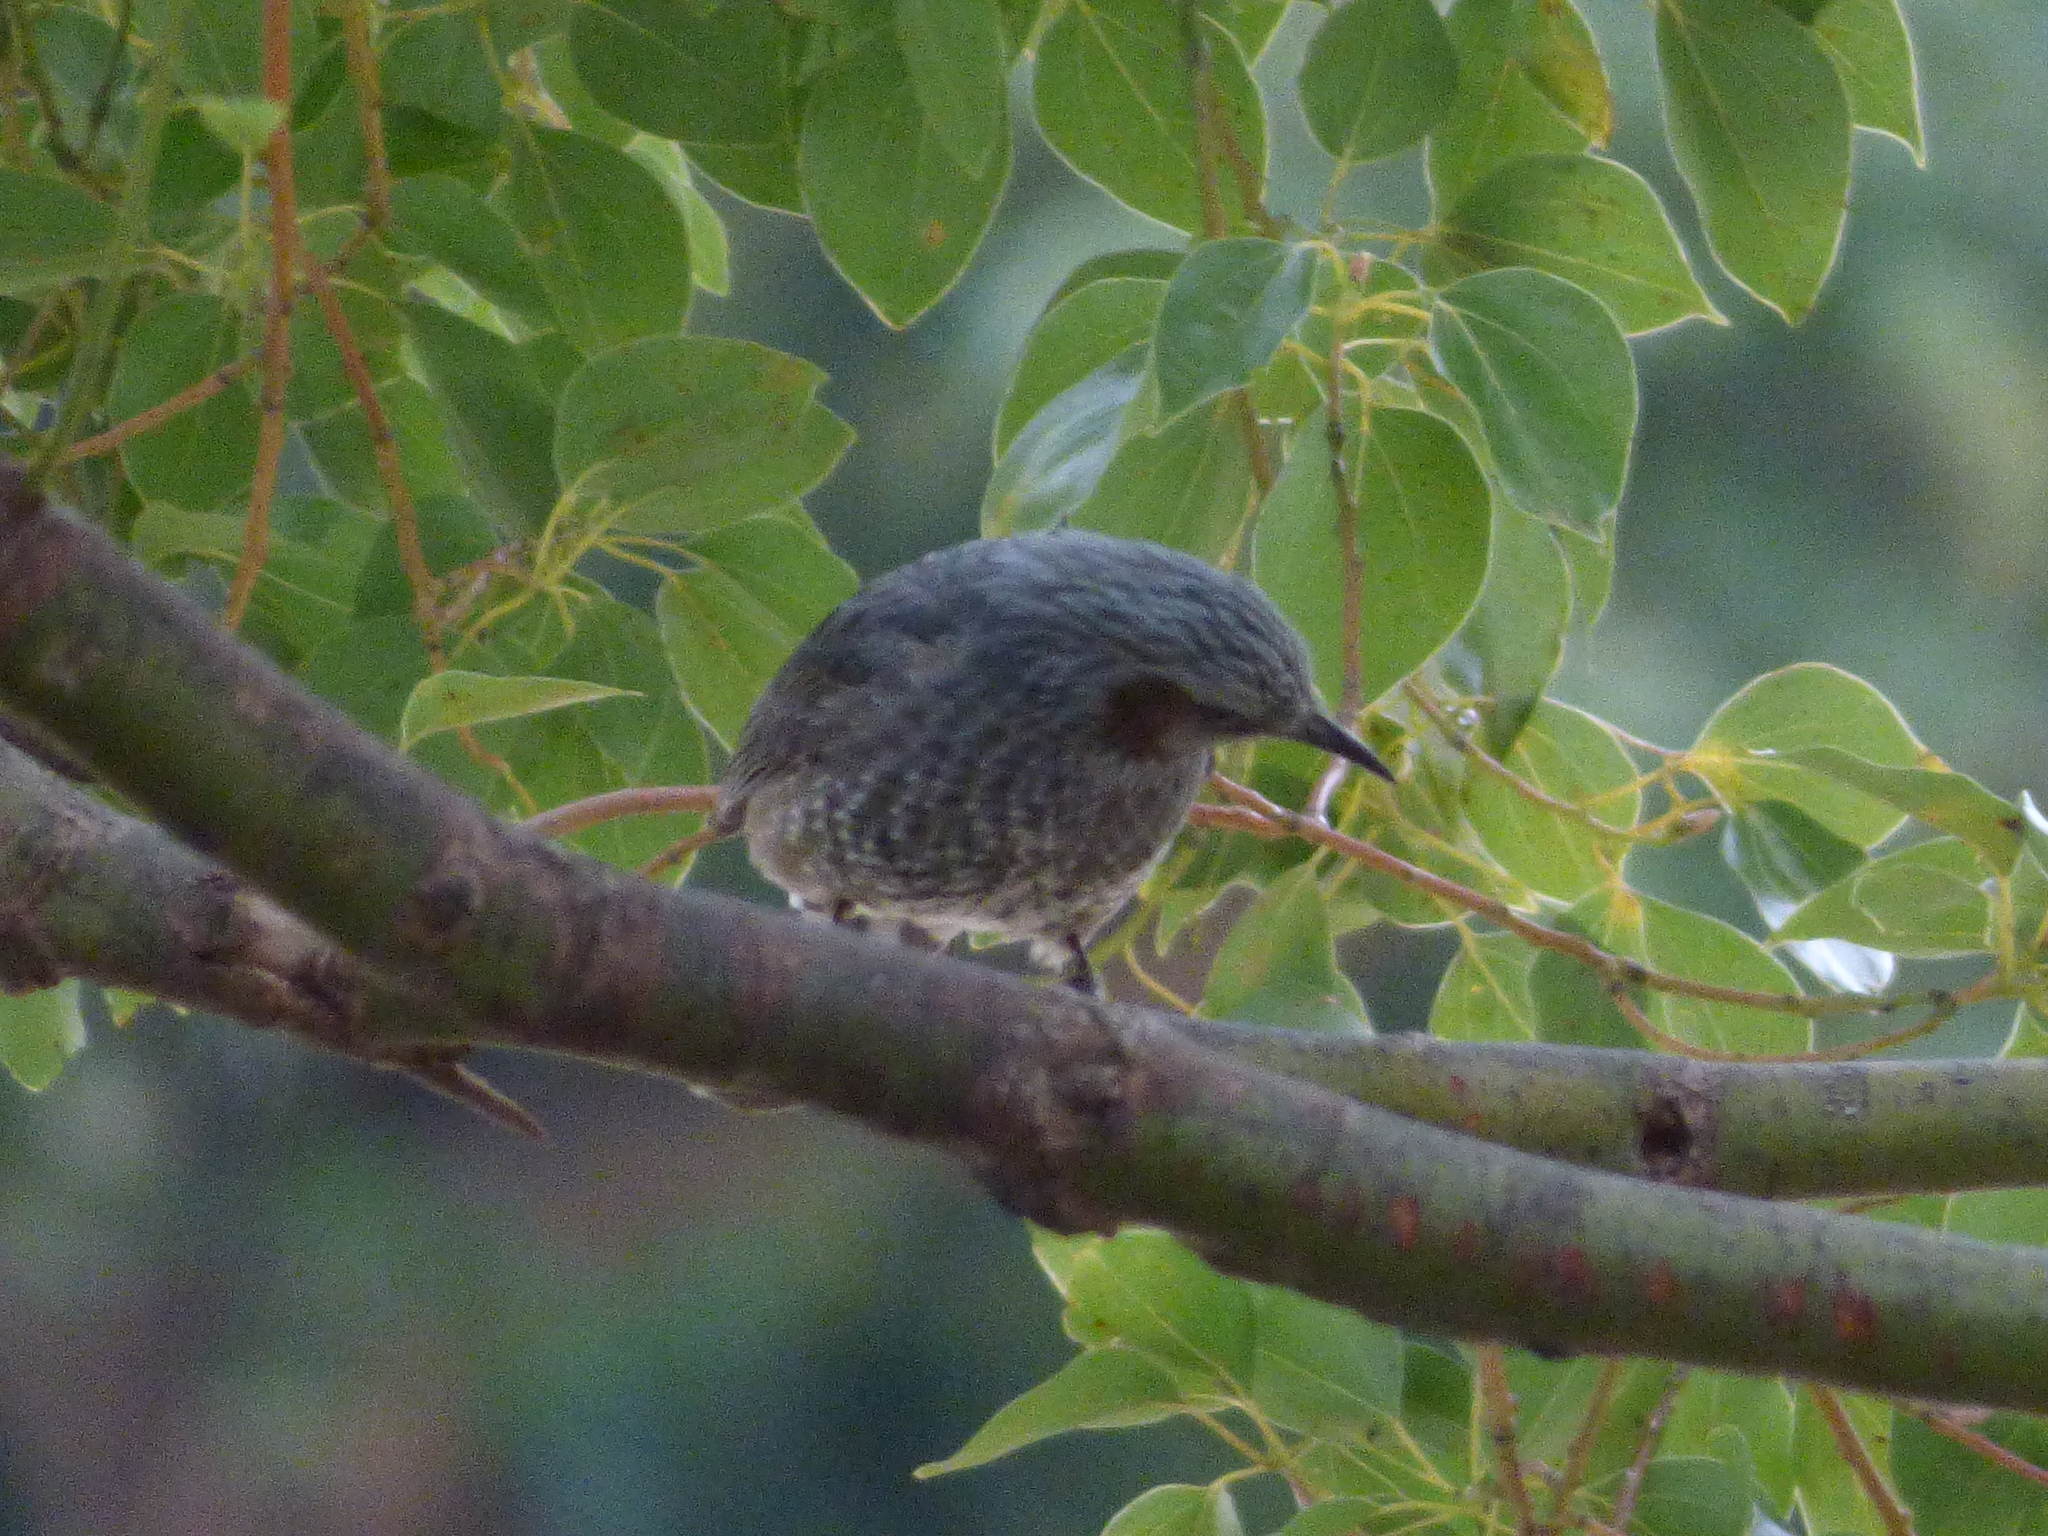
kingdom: Animalia
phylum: Chordata
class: Aves
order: Passeriformes
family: Pycnonotidae
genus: Hypsipetes
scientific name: Hypsipetes amaurotis
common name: Brown-eared bulbul
